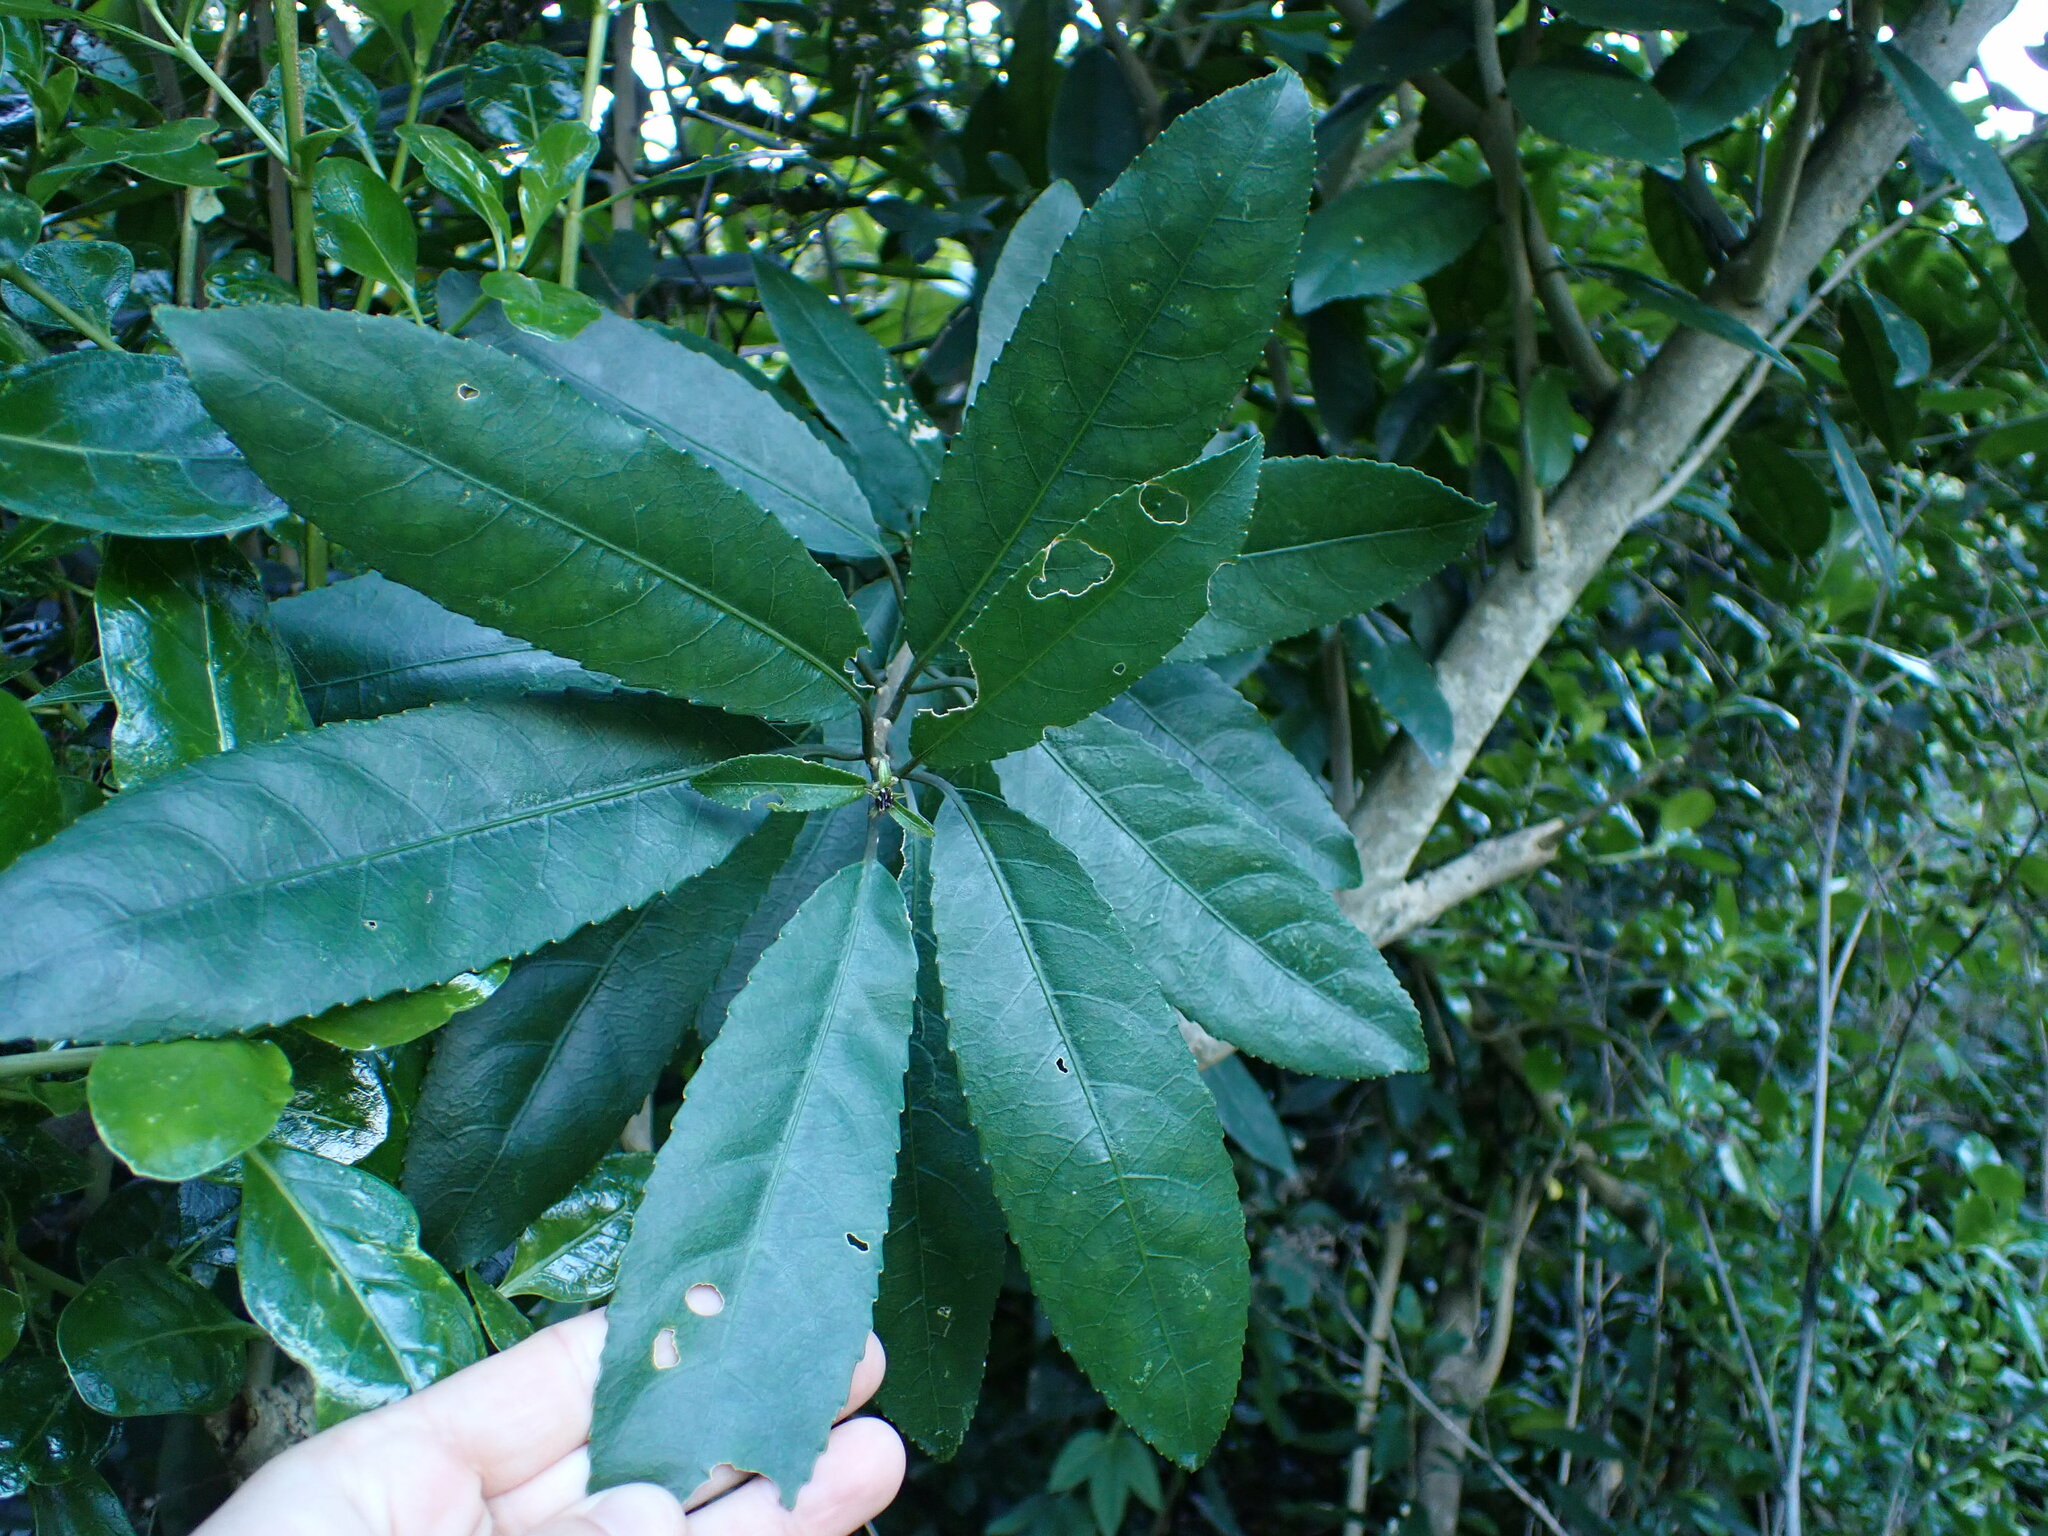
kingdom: Plantae
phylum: Tracheophyta
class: Magnoliopsida
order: Malpighiales
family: Violaceae
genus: Melicytus
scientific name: Melicytus ramiflorus
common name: Mahoe
